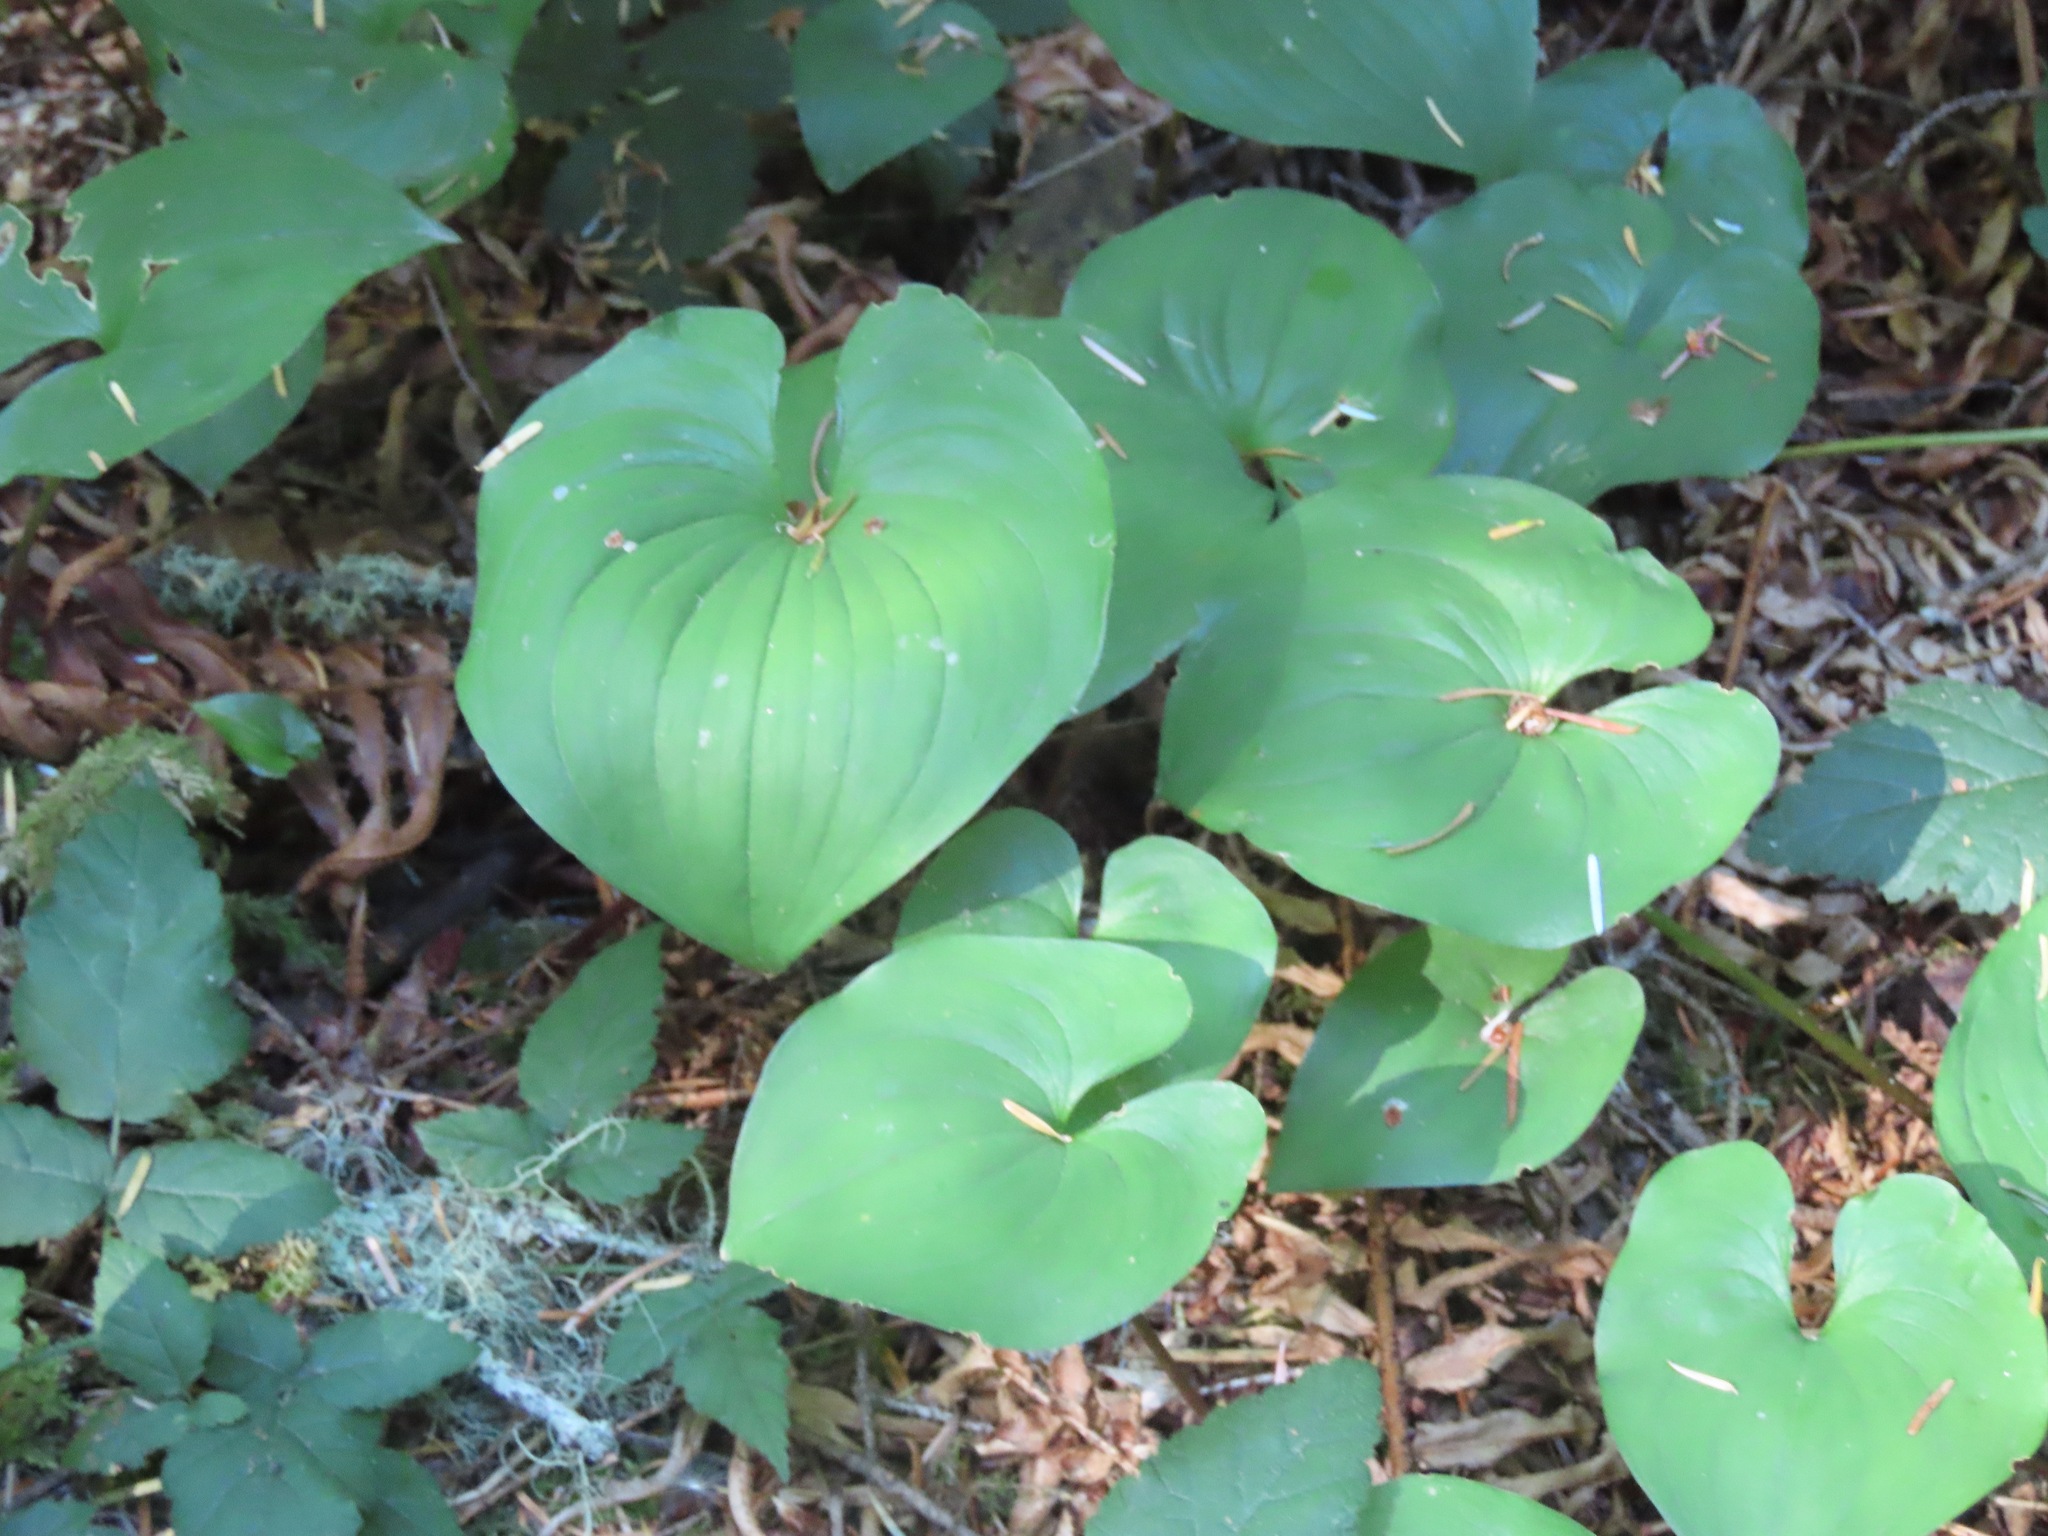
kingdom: Plantae
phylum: Tracheophyta
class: Liliopsida
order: Asparagales
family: Asparagaceae
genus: Maianthemum
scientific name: Maianthemum dilatatum
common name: False lily-of-the-valley
